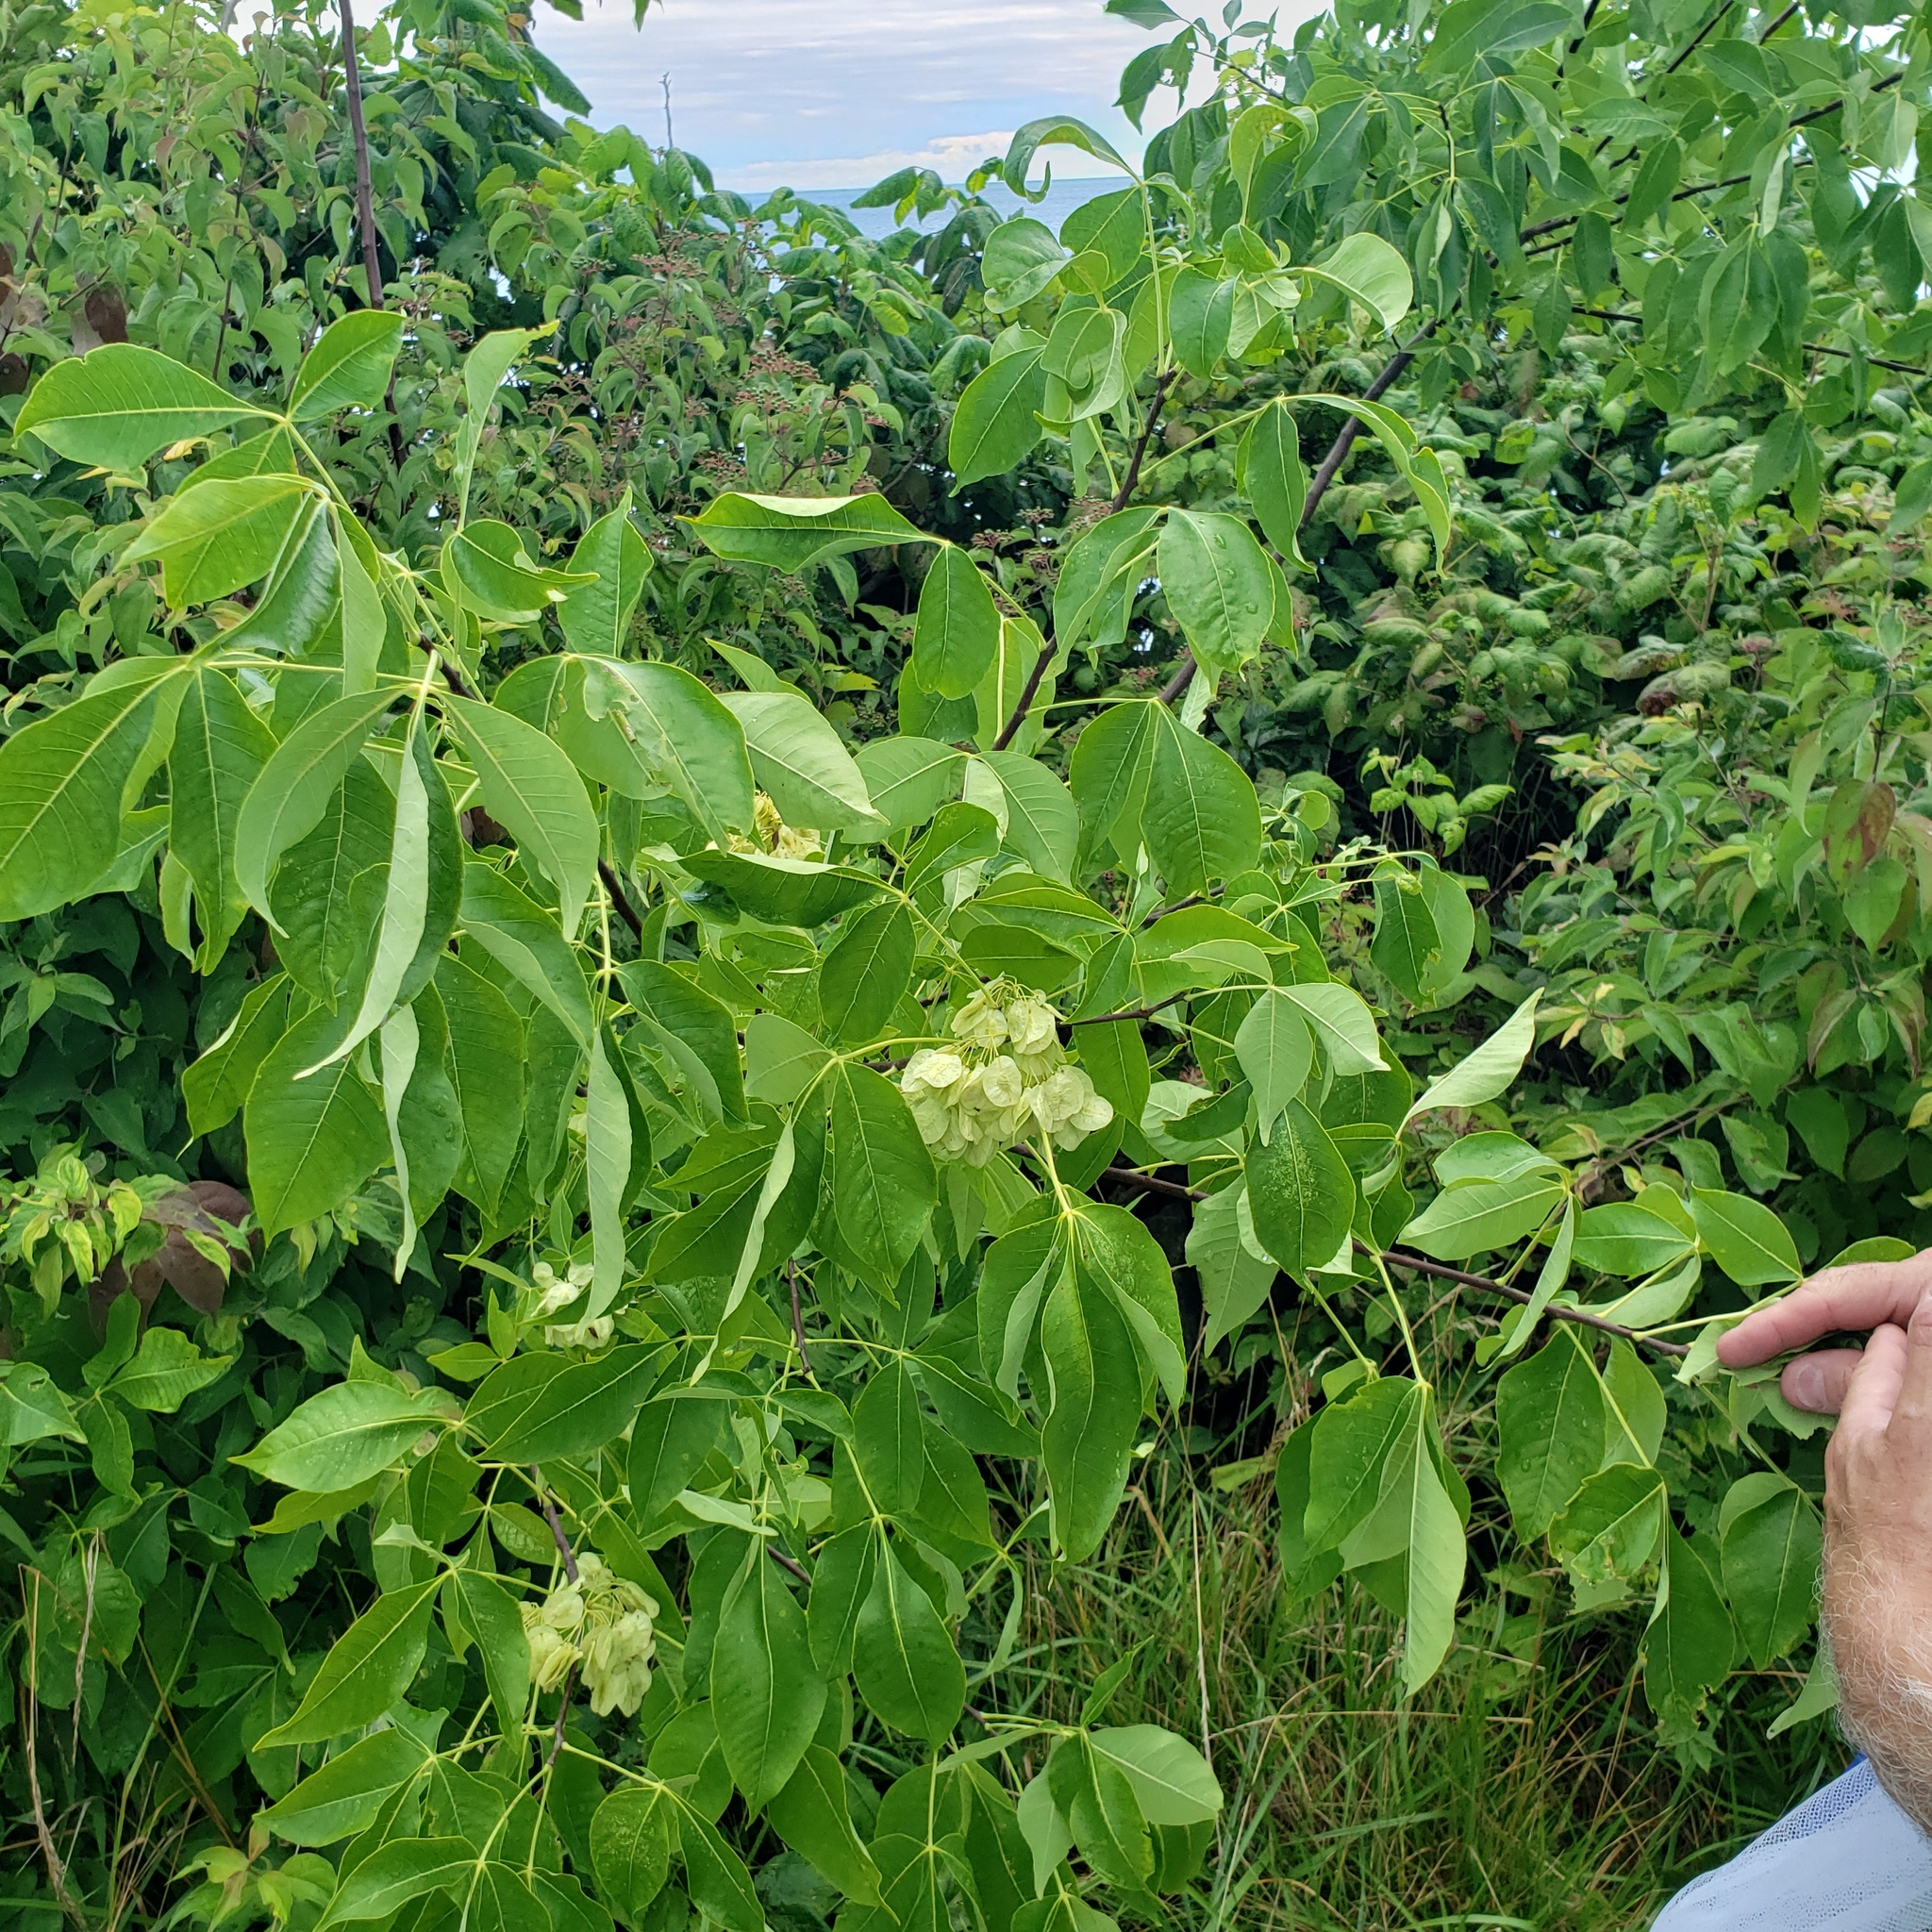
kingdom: Plantae
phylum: Tracheophyta
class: Magnoliopsida
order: Sapindales
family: Rutaceae
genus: Ptelea
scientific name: Ptelea trifoliata
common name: Common hop-tree
